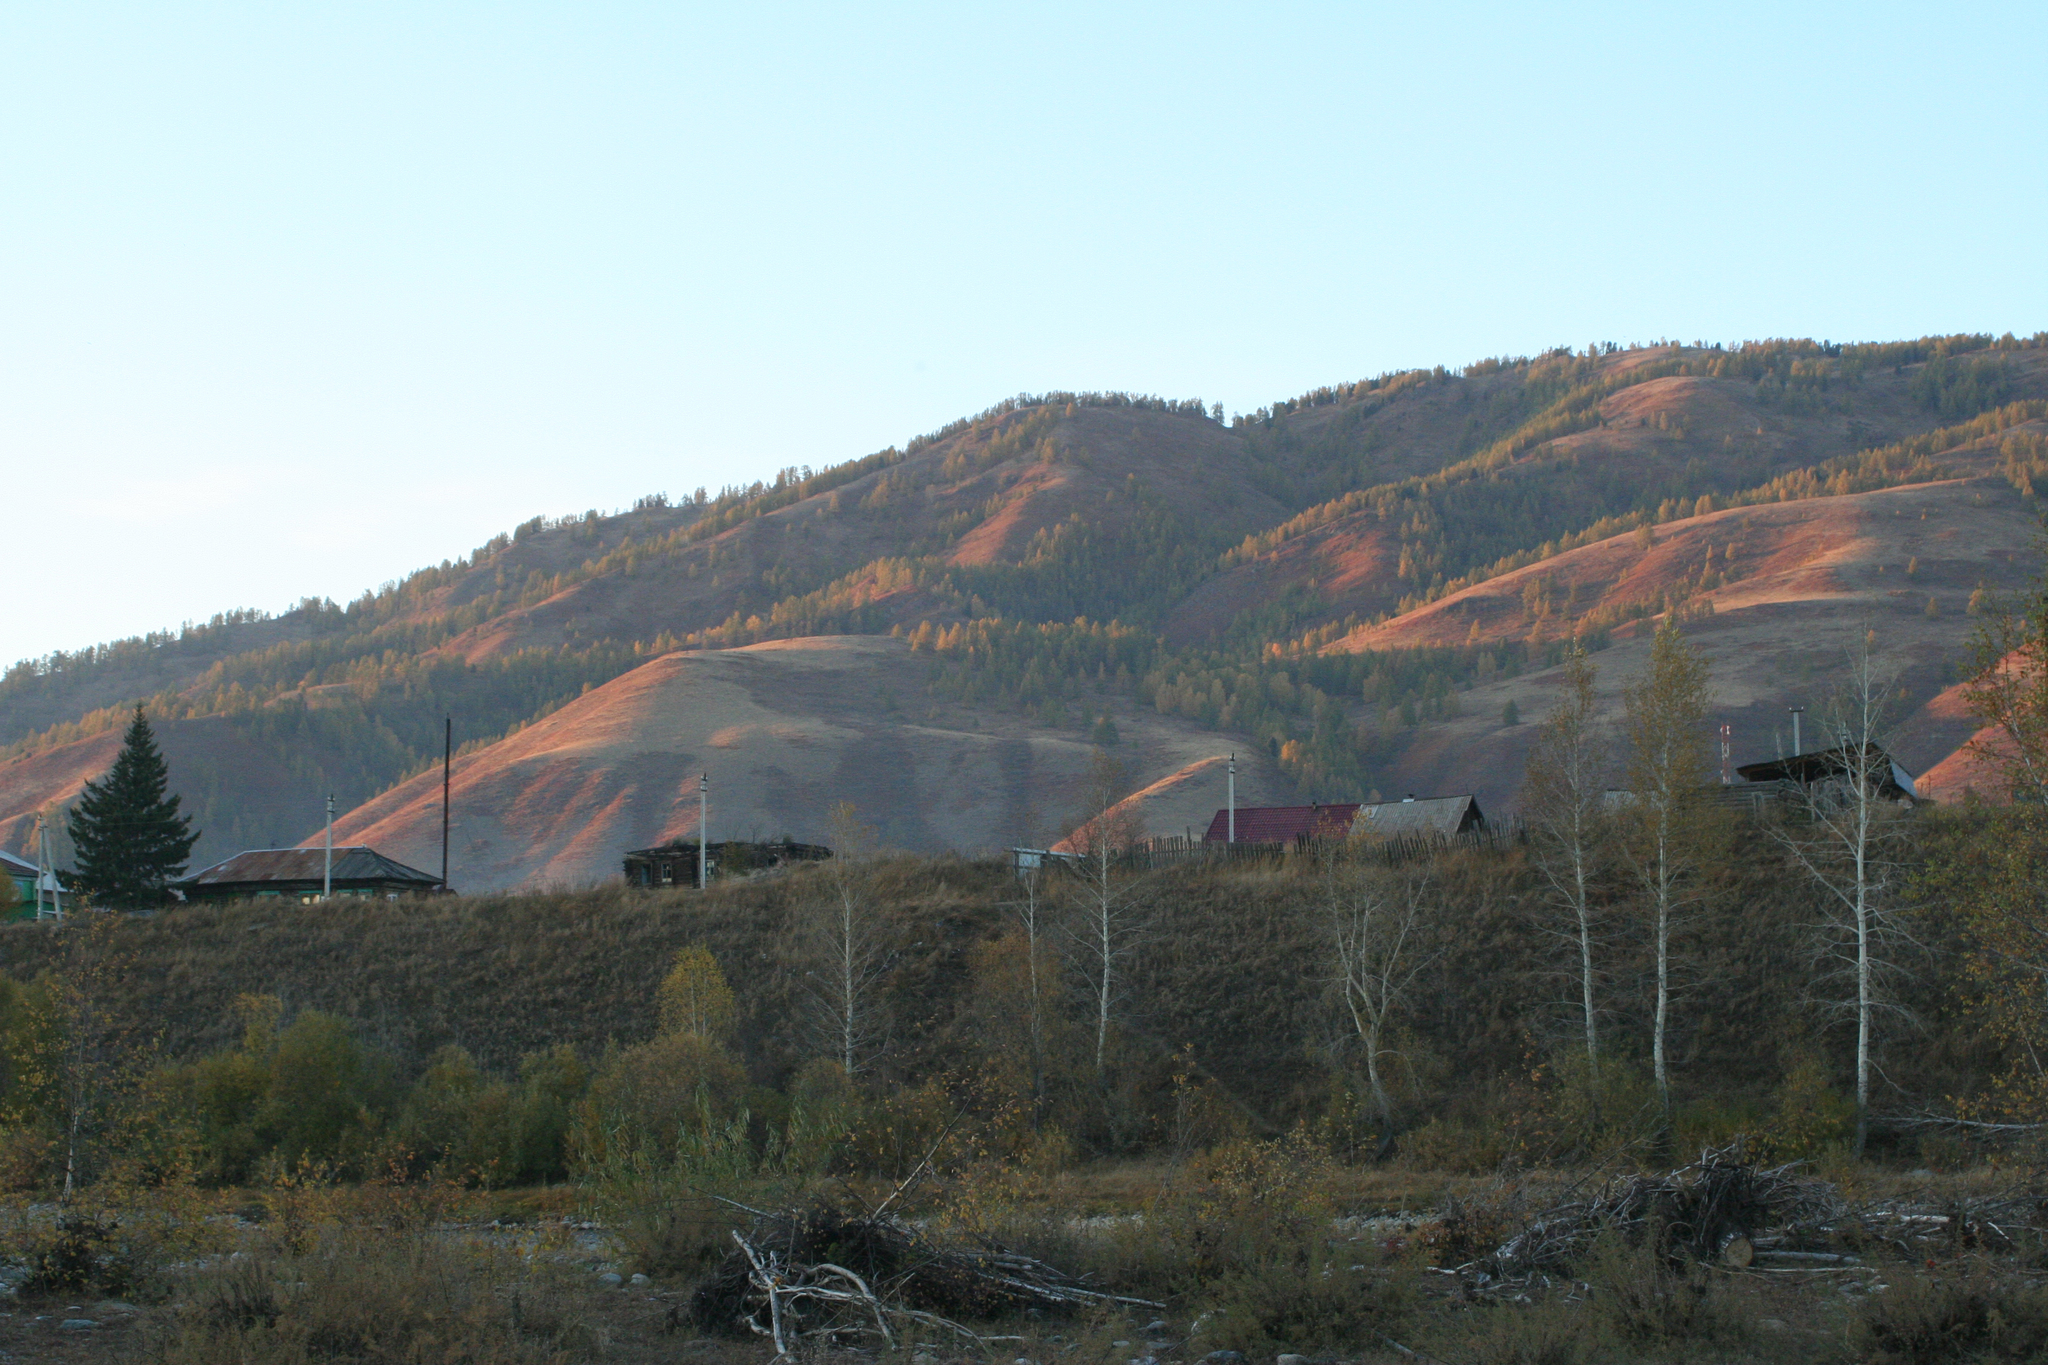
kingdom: Plantae
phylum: Tracheophyta
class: Magnoliopsida
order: Fagales
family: Betulaceae
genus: Betula
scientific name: Betula pendula
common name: Silver birch
